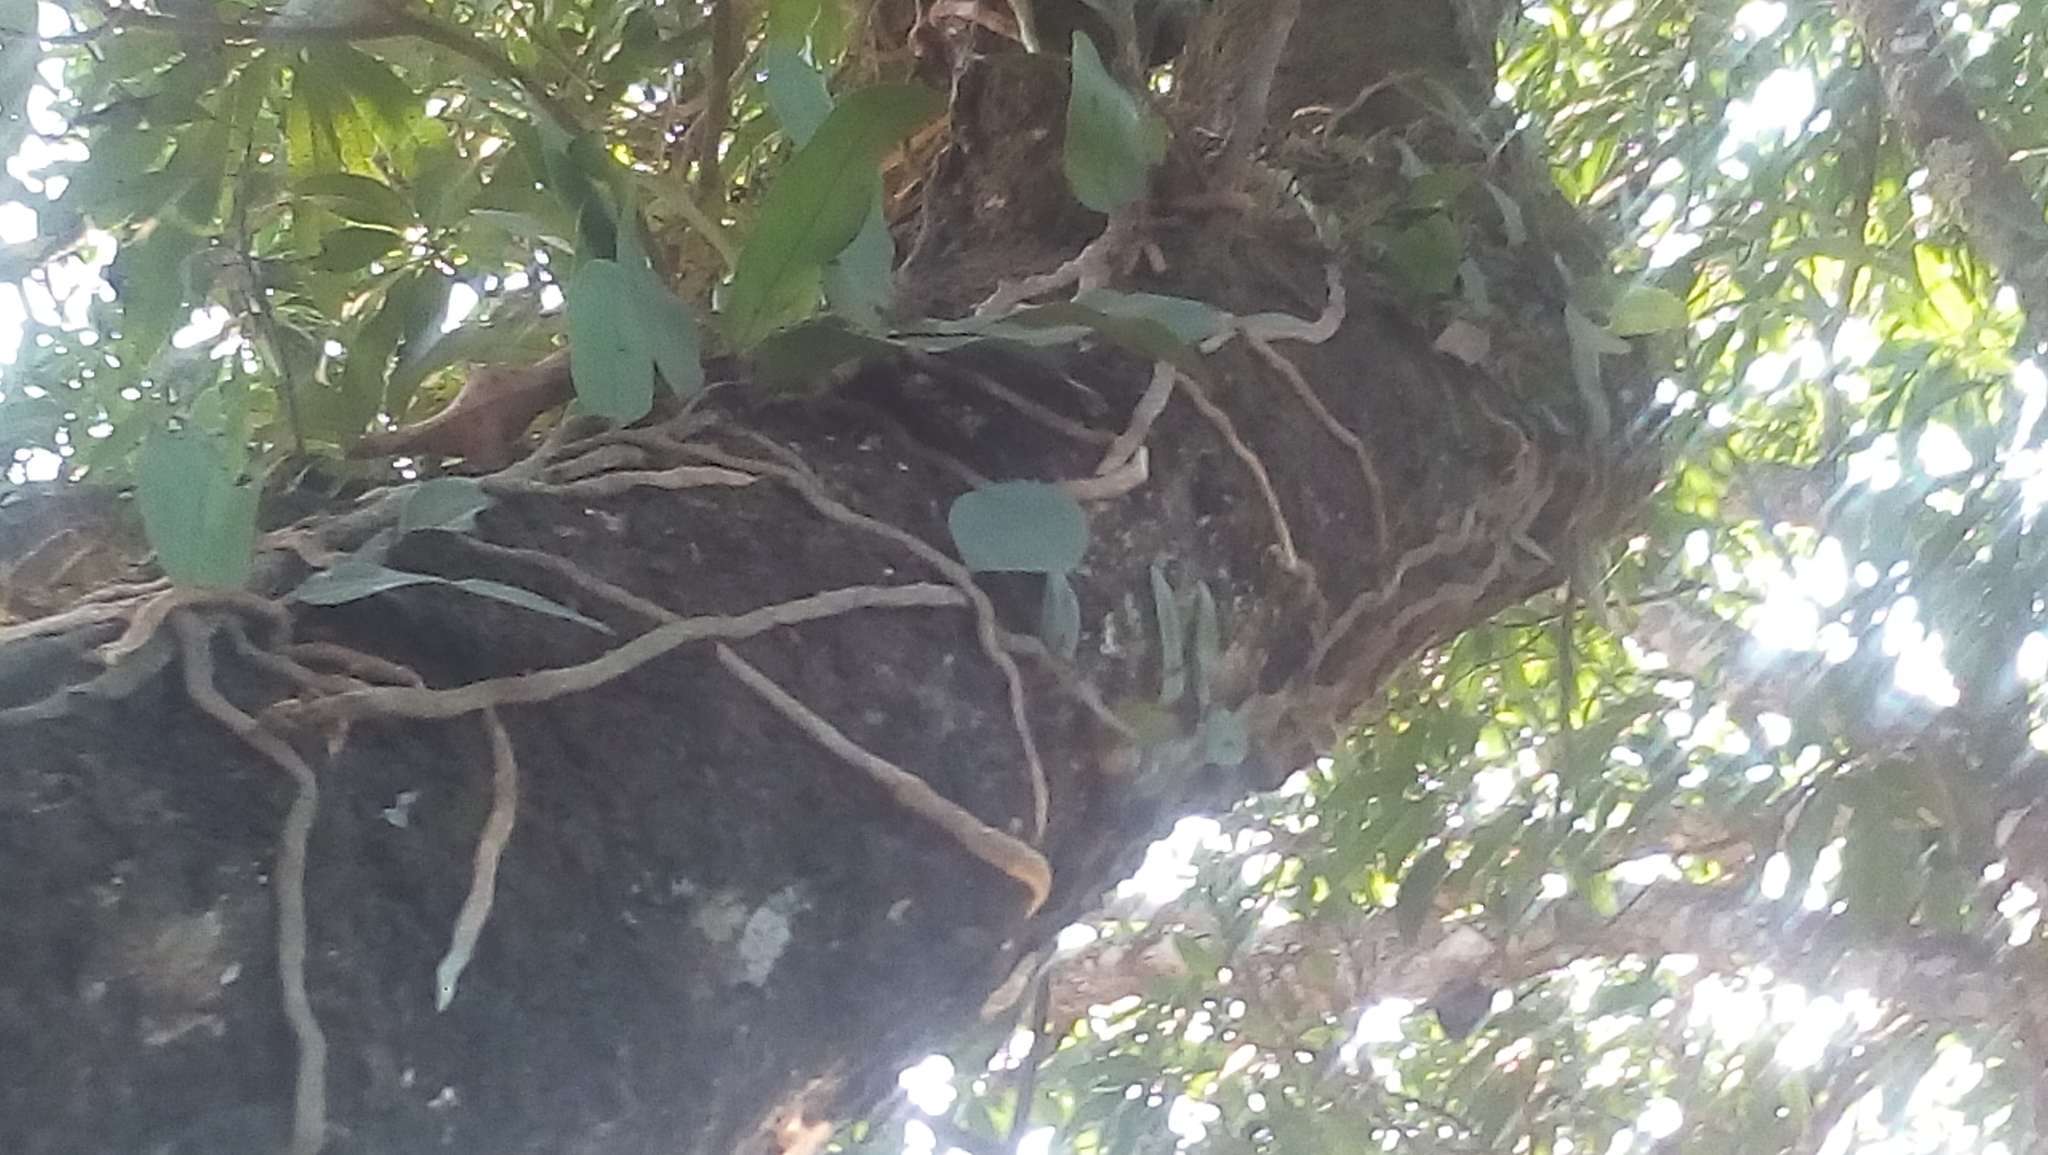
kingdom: Plantae
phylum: Tracheophyta
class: Polypodiopsida
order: Polypodiales
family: Polypodiaceae
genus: Microgramma
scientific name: Microgramma nitida
